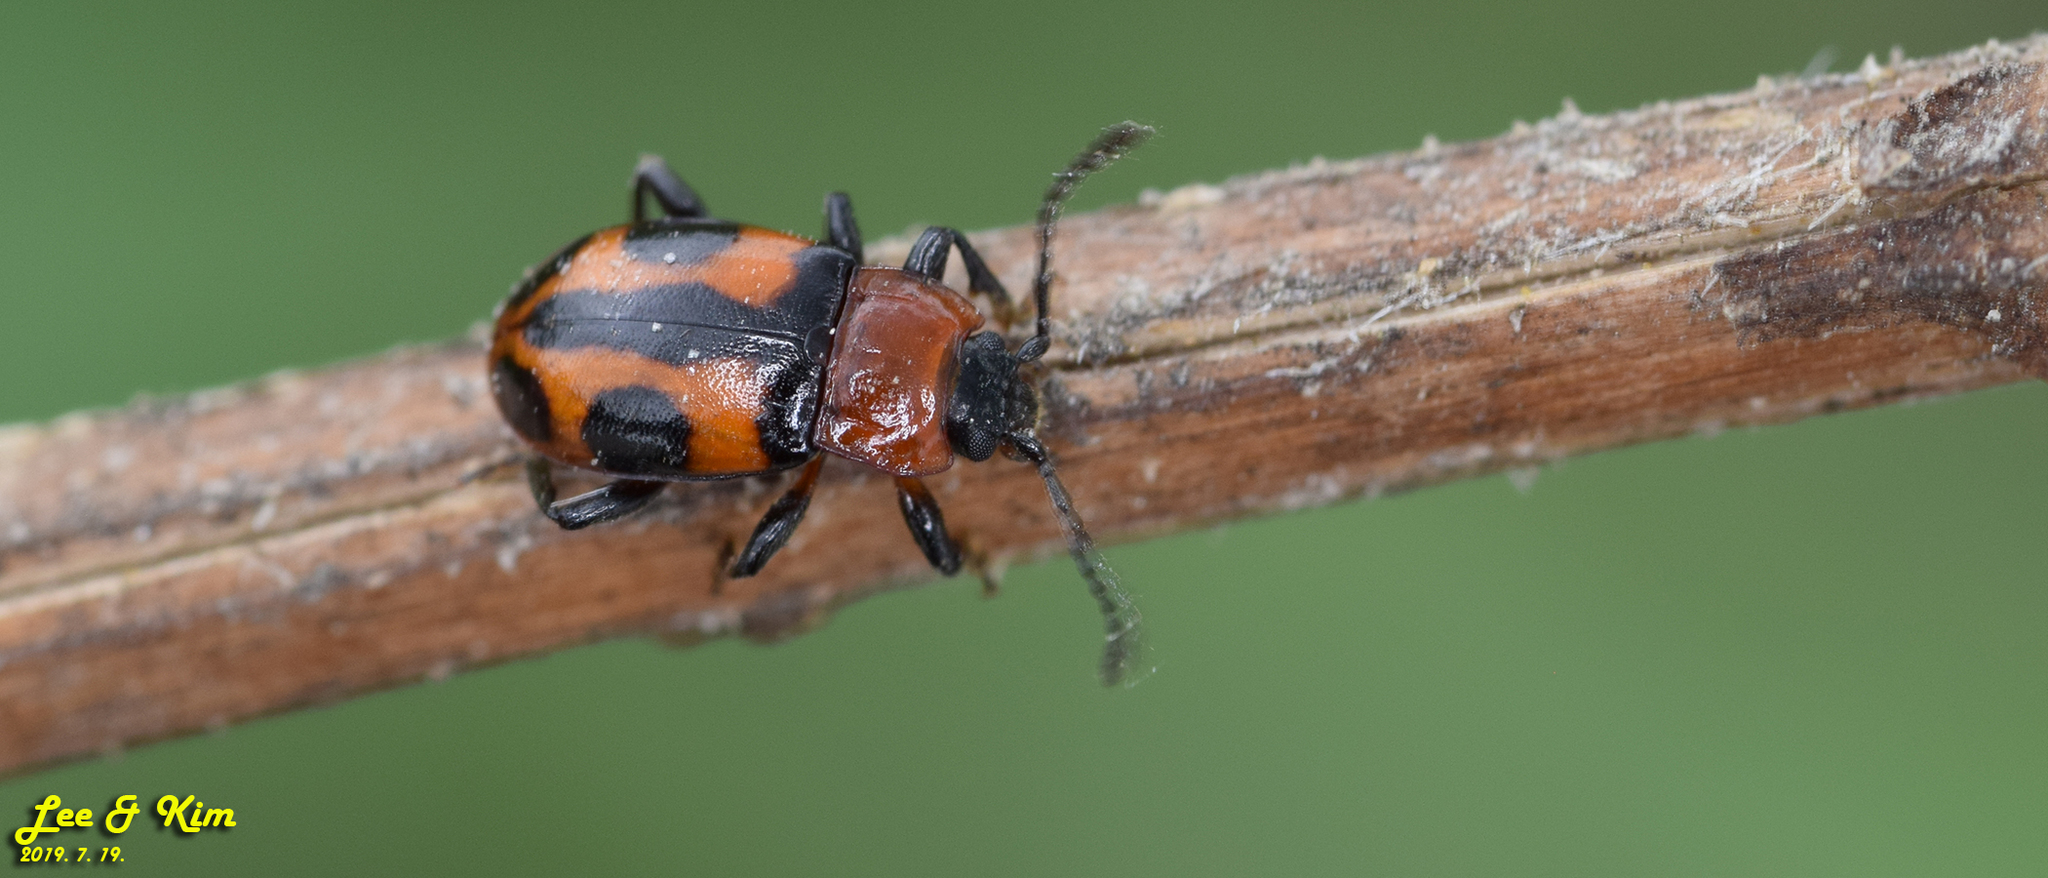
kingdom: Animalia
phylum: Arthropoda
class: Insecta
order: Coleoptera
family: Endomychidae
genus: Ancylopus
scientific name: Ancylopus pictus
